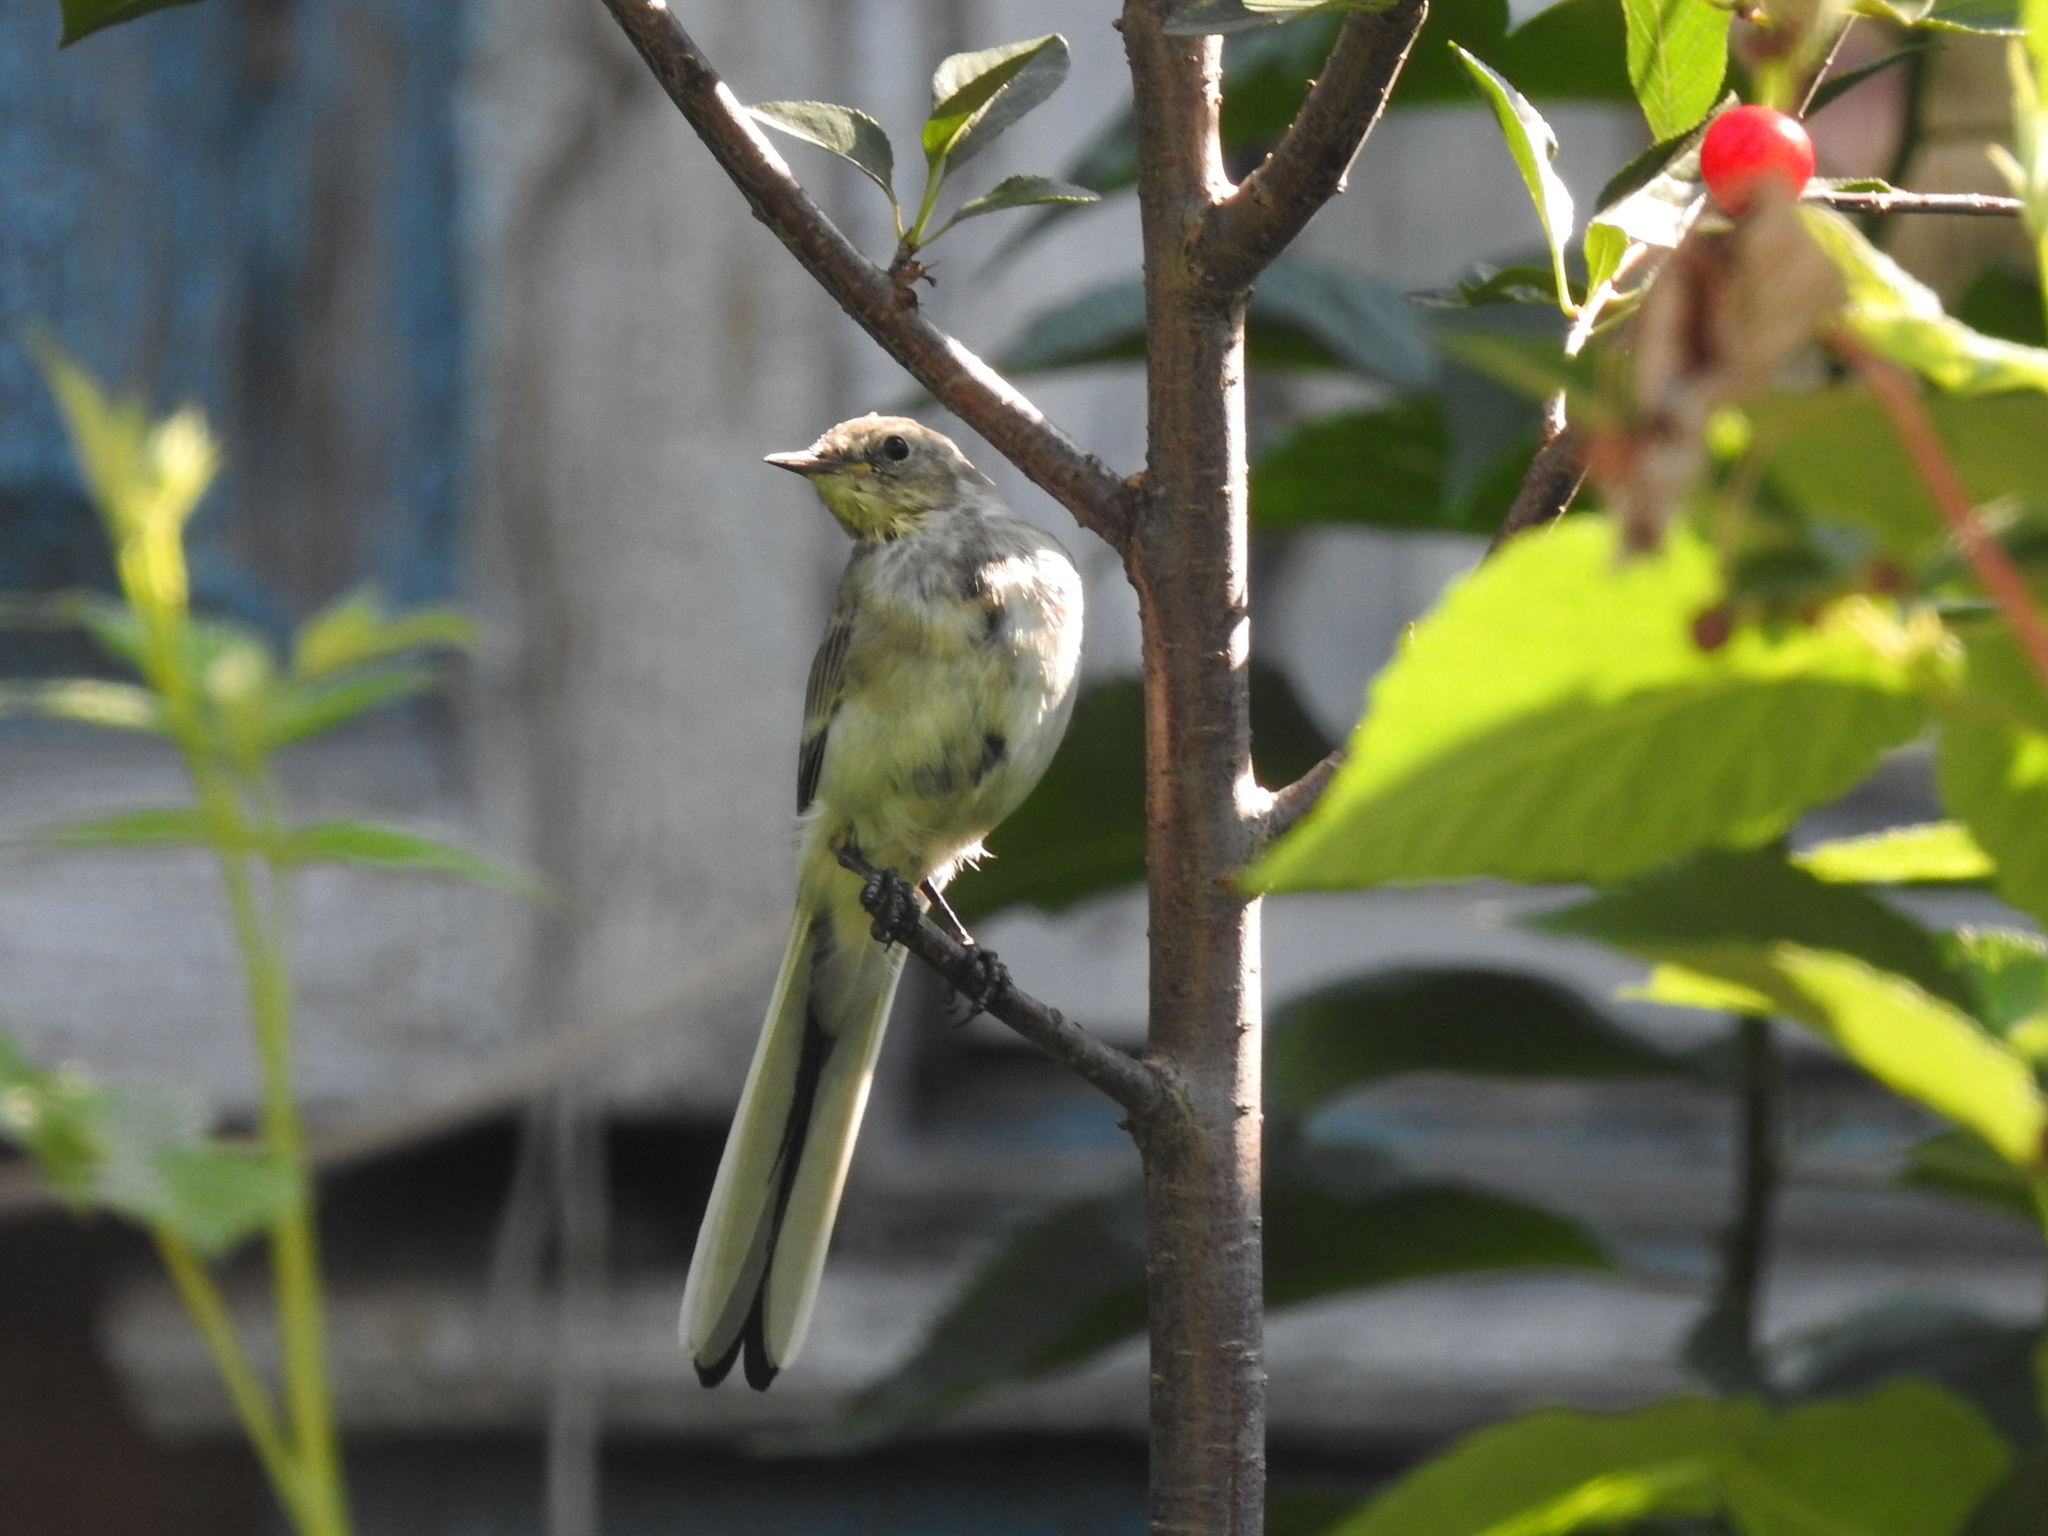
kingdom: Animalia
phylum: Chordata
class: Aves
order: Passeriformes
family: Motacillidae
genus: Motacilla
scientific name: Motacilla alba
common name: White wagtail
